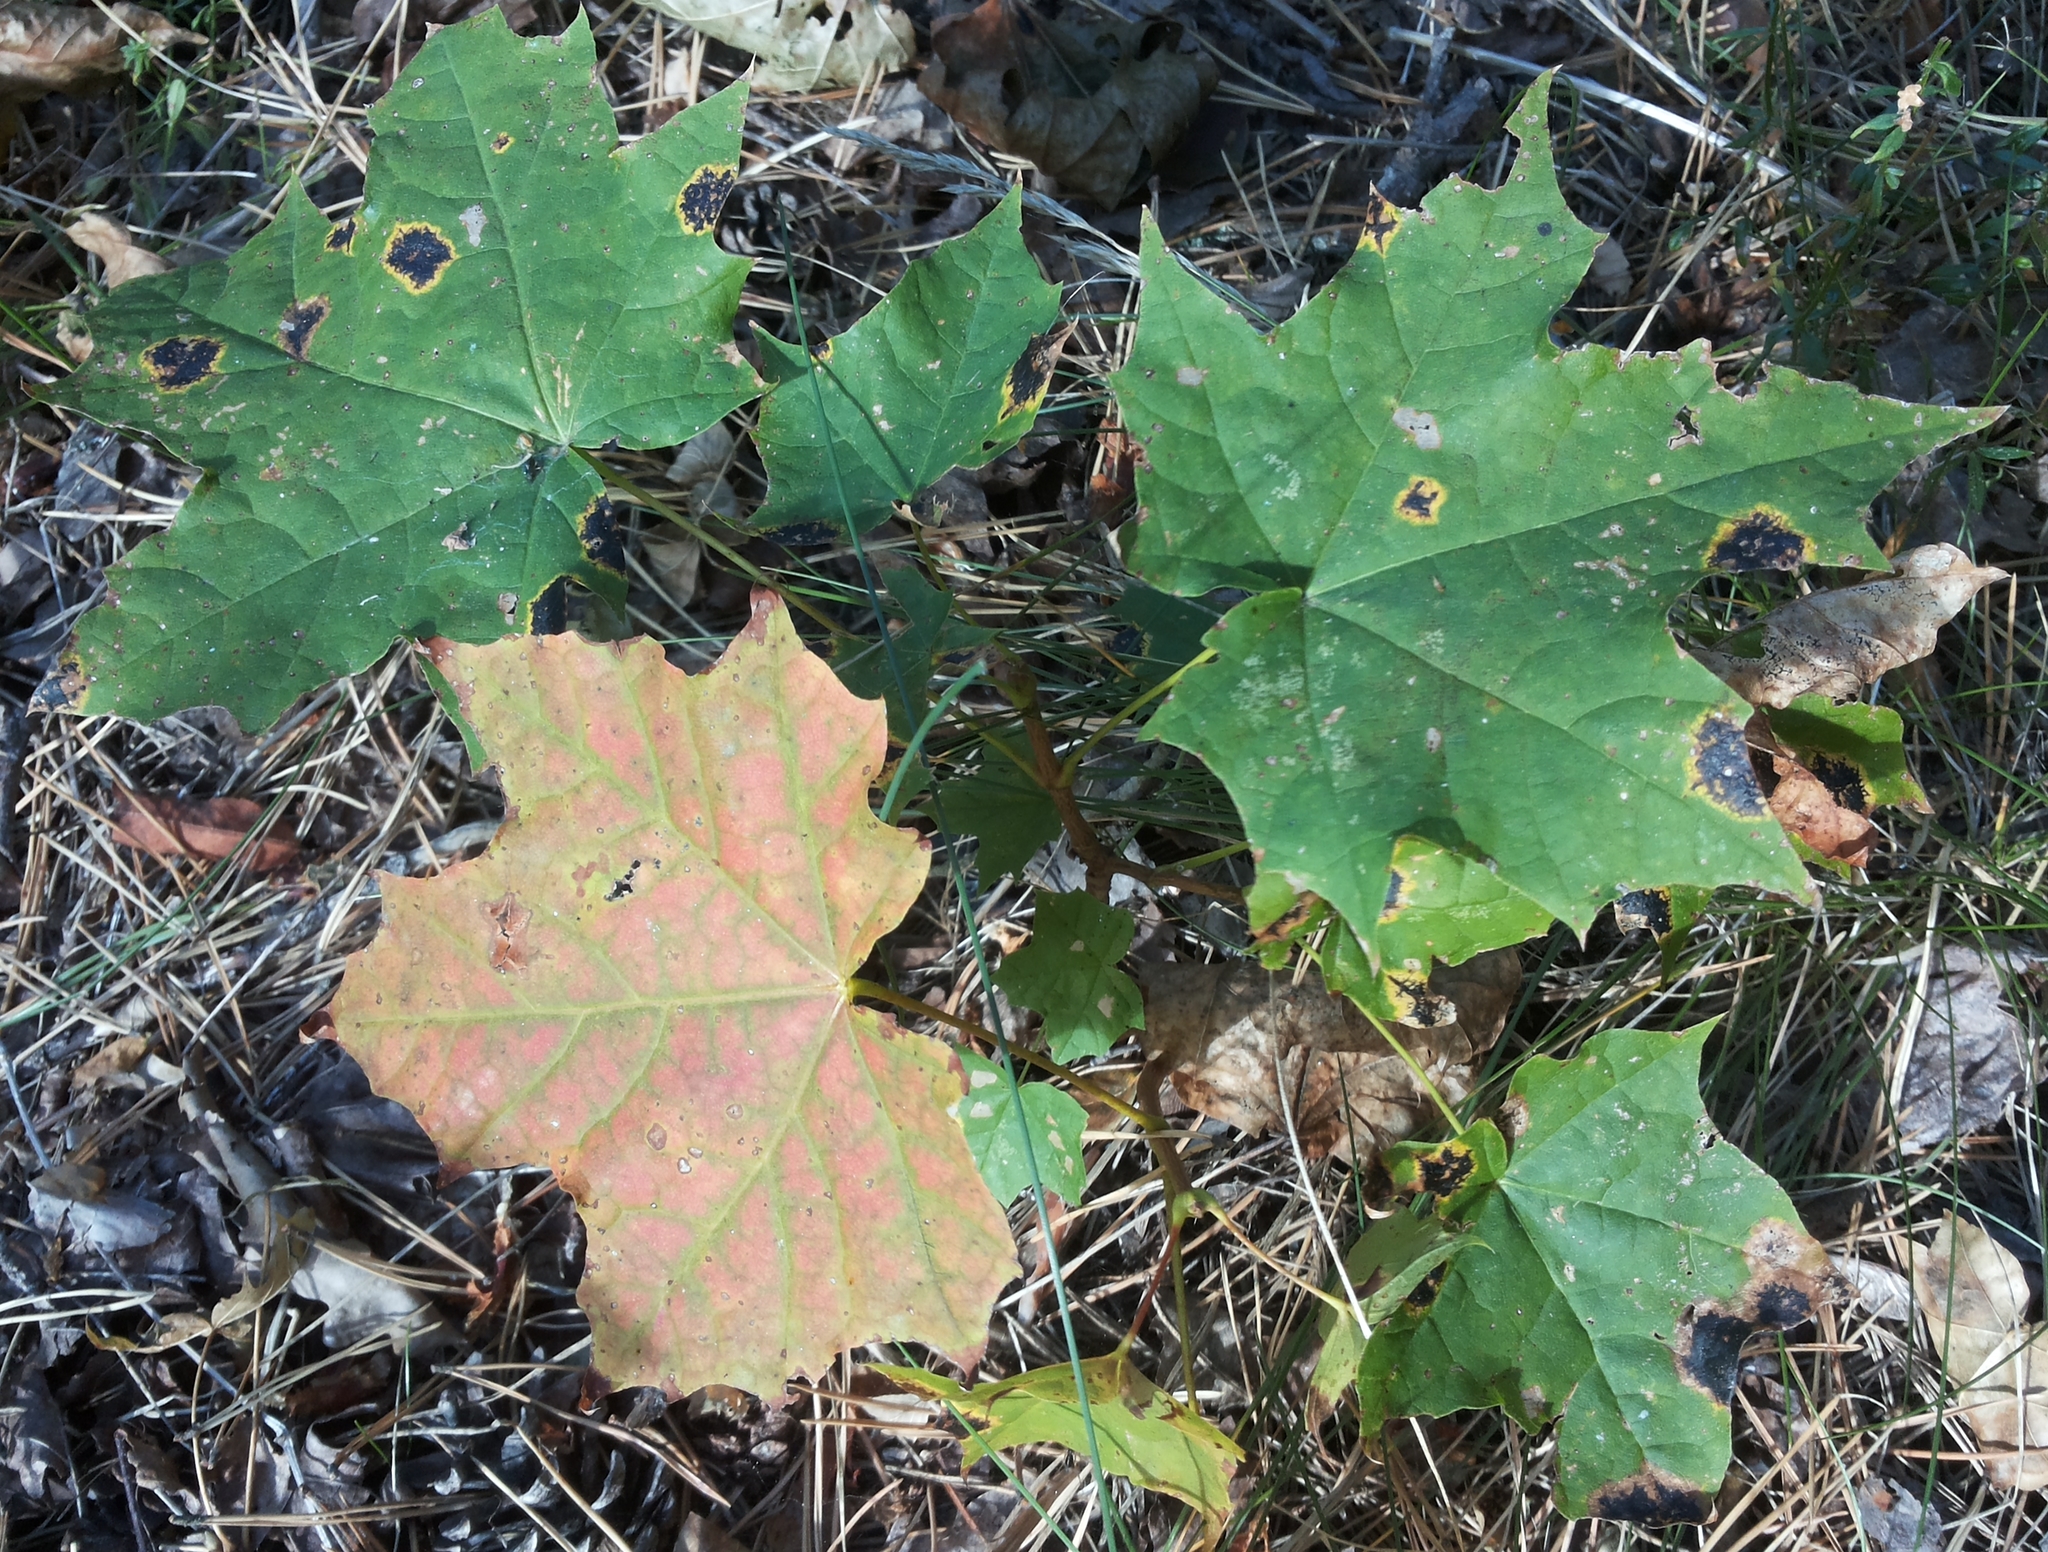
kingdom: Plantae
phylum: Tracheophyta
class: Magnoliopsida
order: Sapindales
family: Sapindaceae
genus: Acer
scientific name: Acer platanoides
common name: Norway maple
